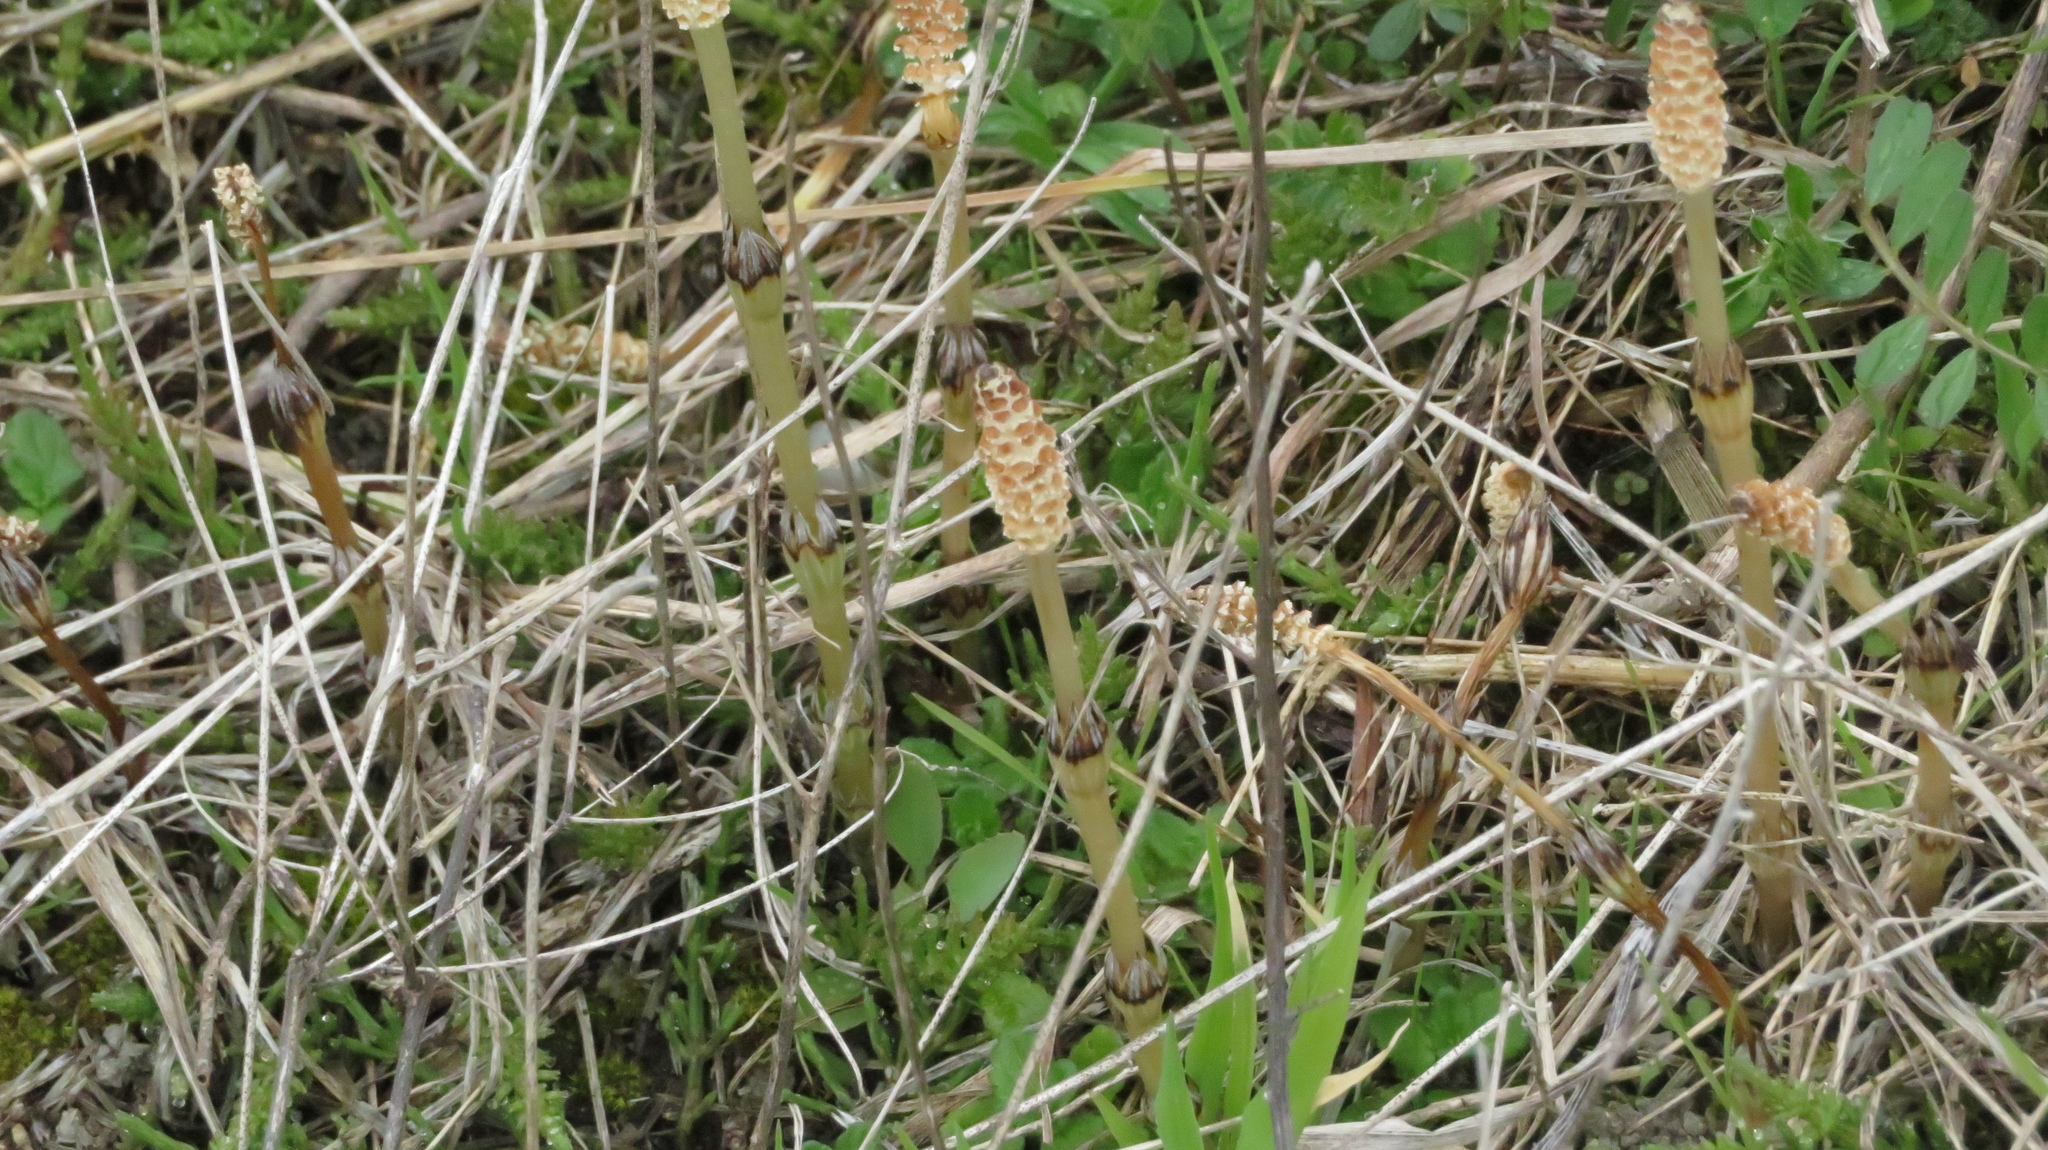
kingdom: Plantae
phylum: Tracheophyta
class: Polypodiopsida
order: Equisetales
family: Equisetaceae
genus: Equisetum
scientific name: Equisetum arvense
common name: Field horsetail
